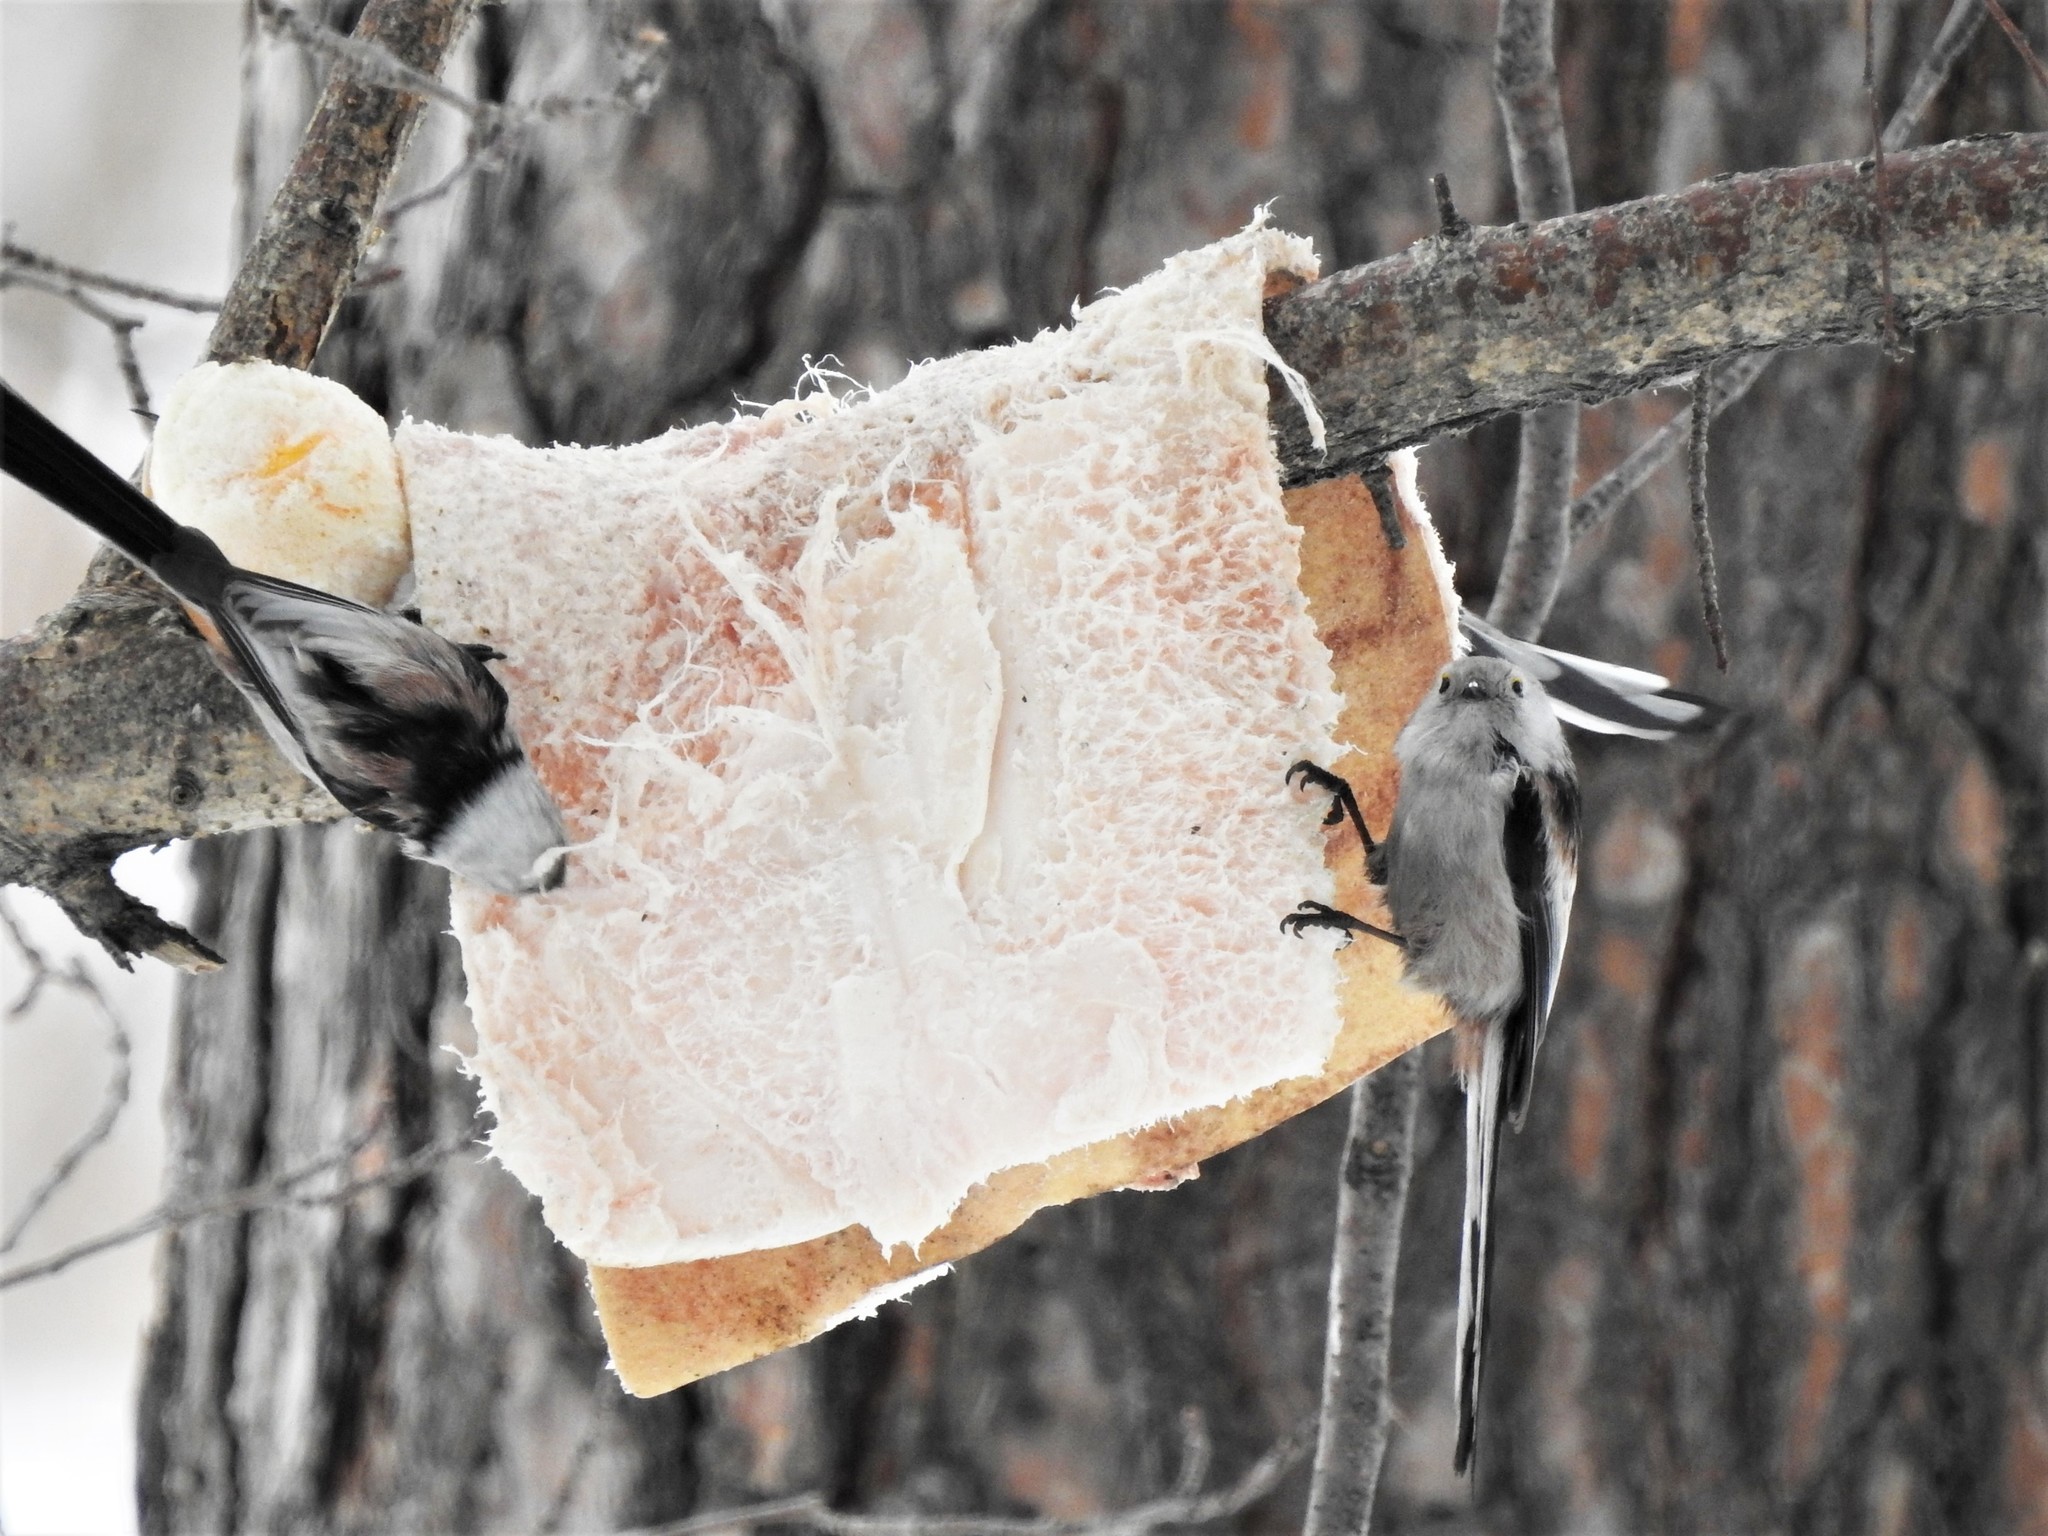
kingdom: Animalia
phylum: Chordata
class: Aves
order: Passeriformes
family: Aegithalidae
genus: Aegithalos
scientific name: Aegithalos caudatus
